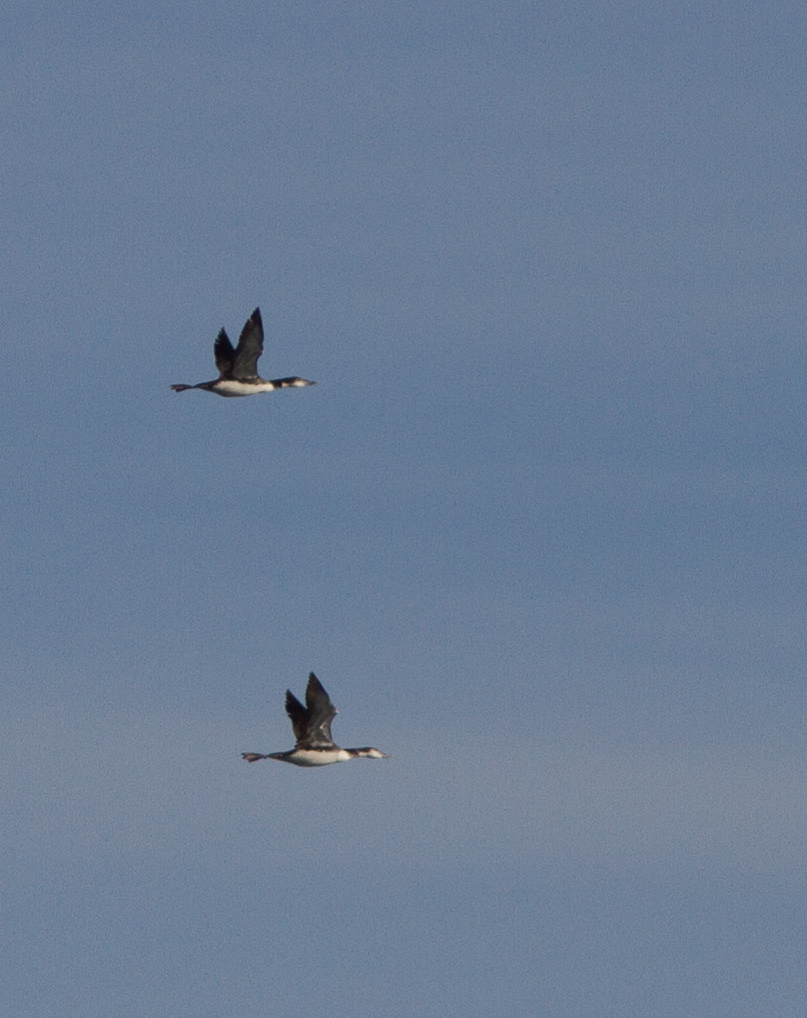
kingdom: Animalia
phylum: Chordata
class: Aves
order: Gaviiformes
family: Gaviidae
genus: Gavia
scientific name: Gavia immer
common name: Common loon
